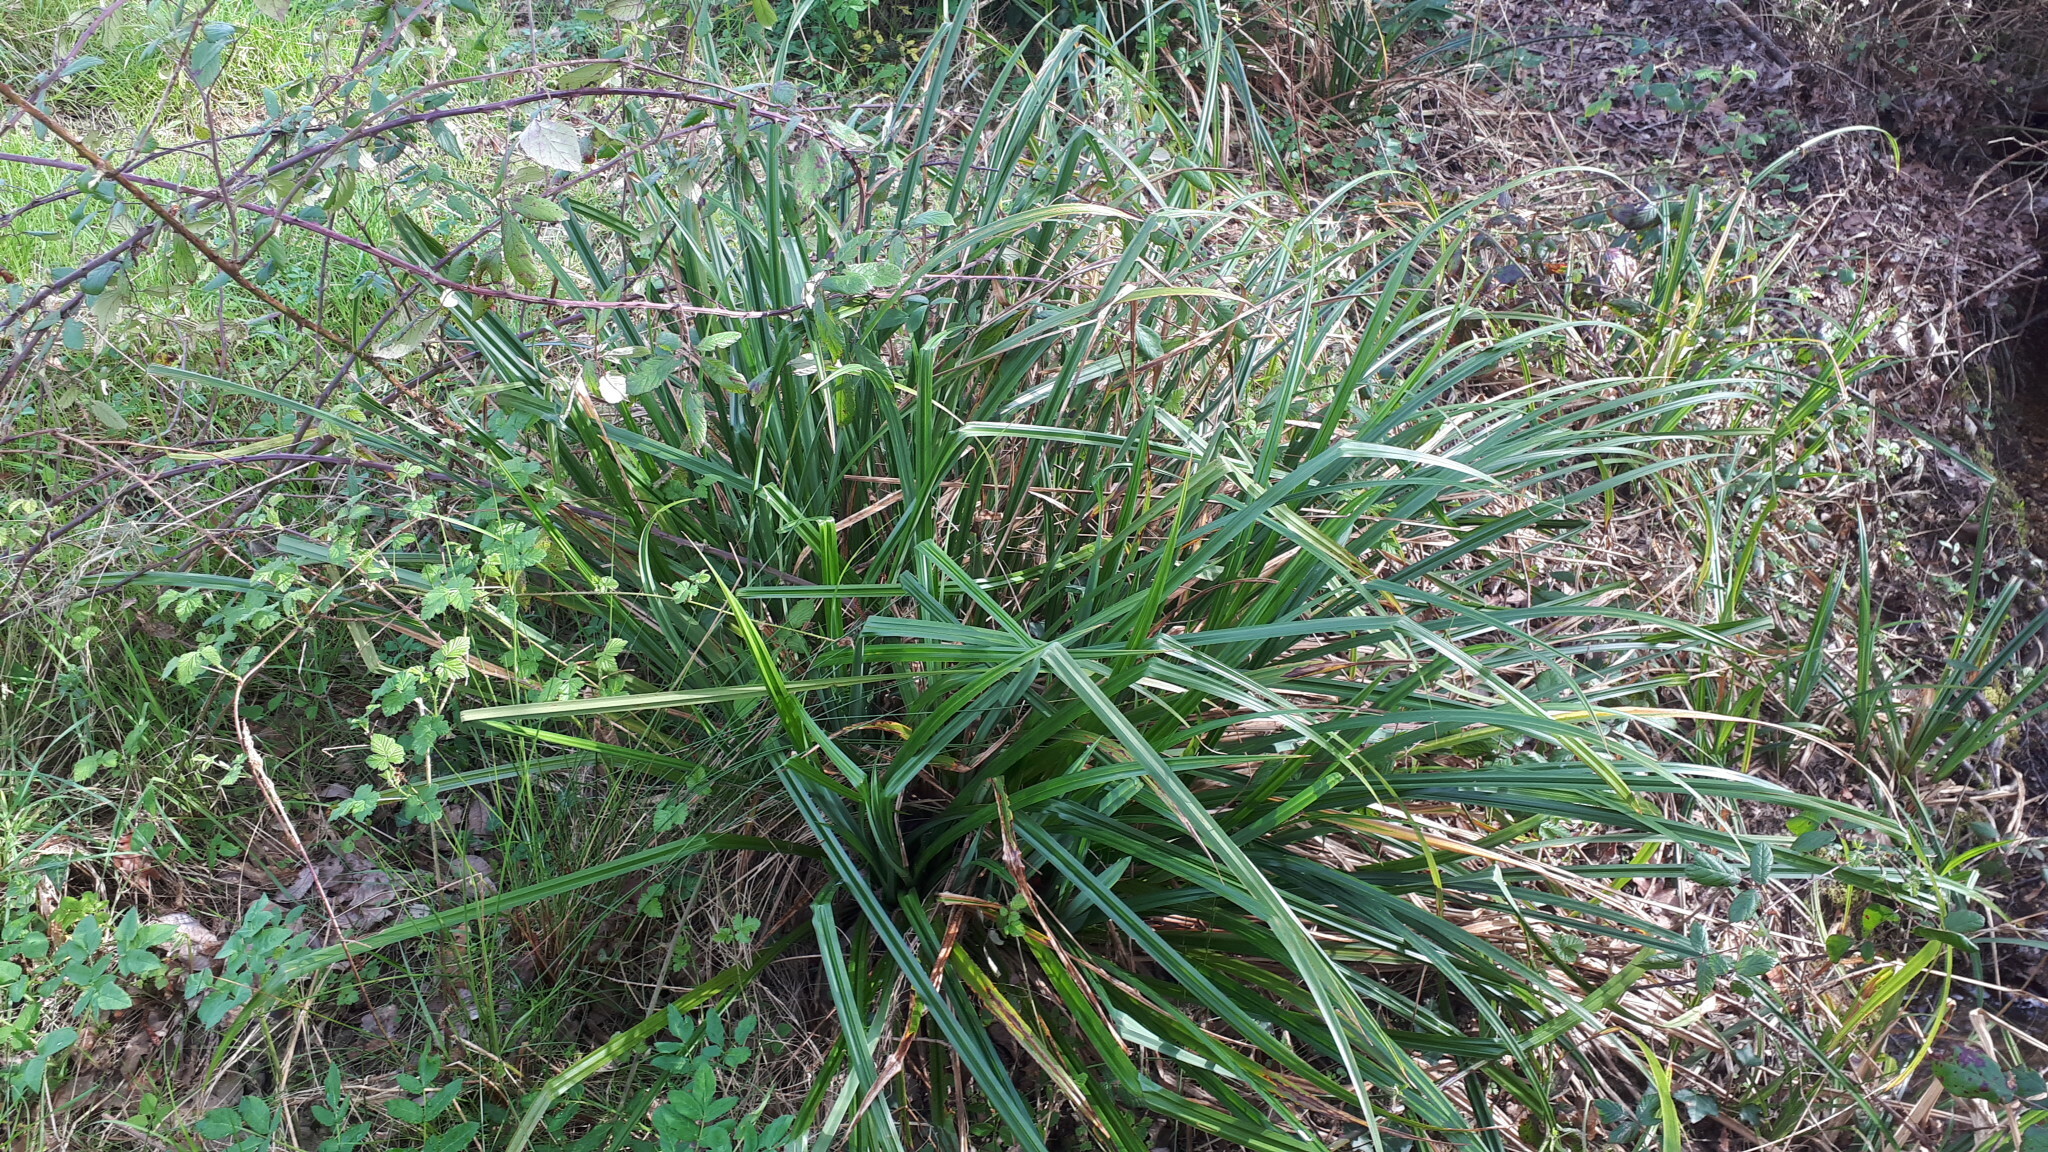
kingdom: Plantae
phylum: Tracheophyta
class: Liliopsida
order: Poales
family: Cyperaceae
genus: Carex
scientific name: Carex pendula
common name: Pendulous sedge
